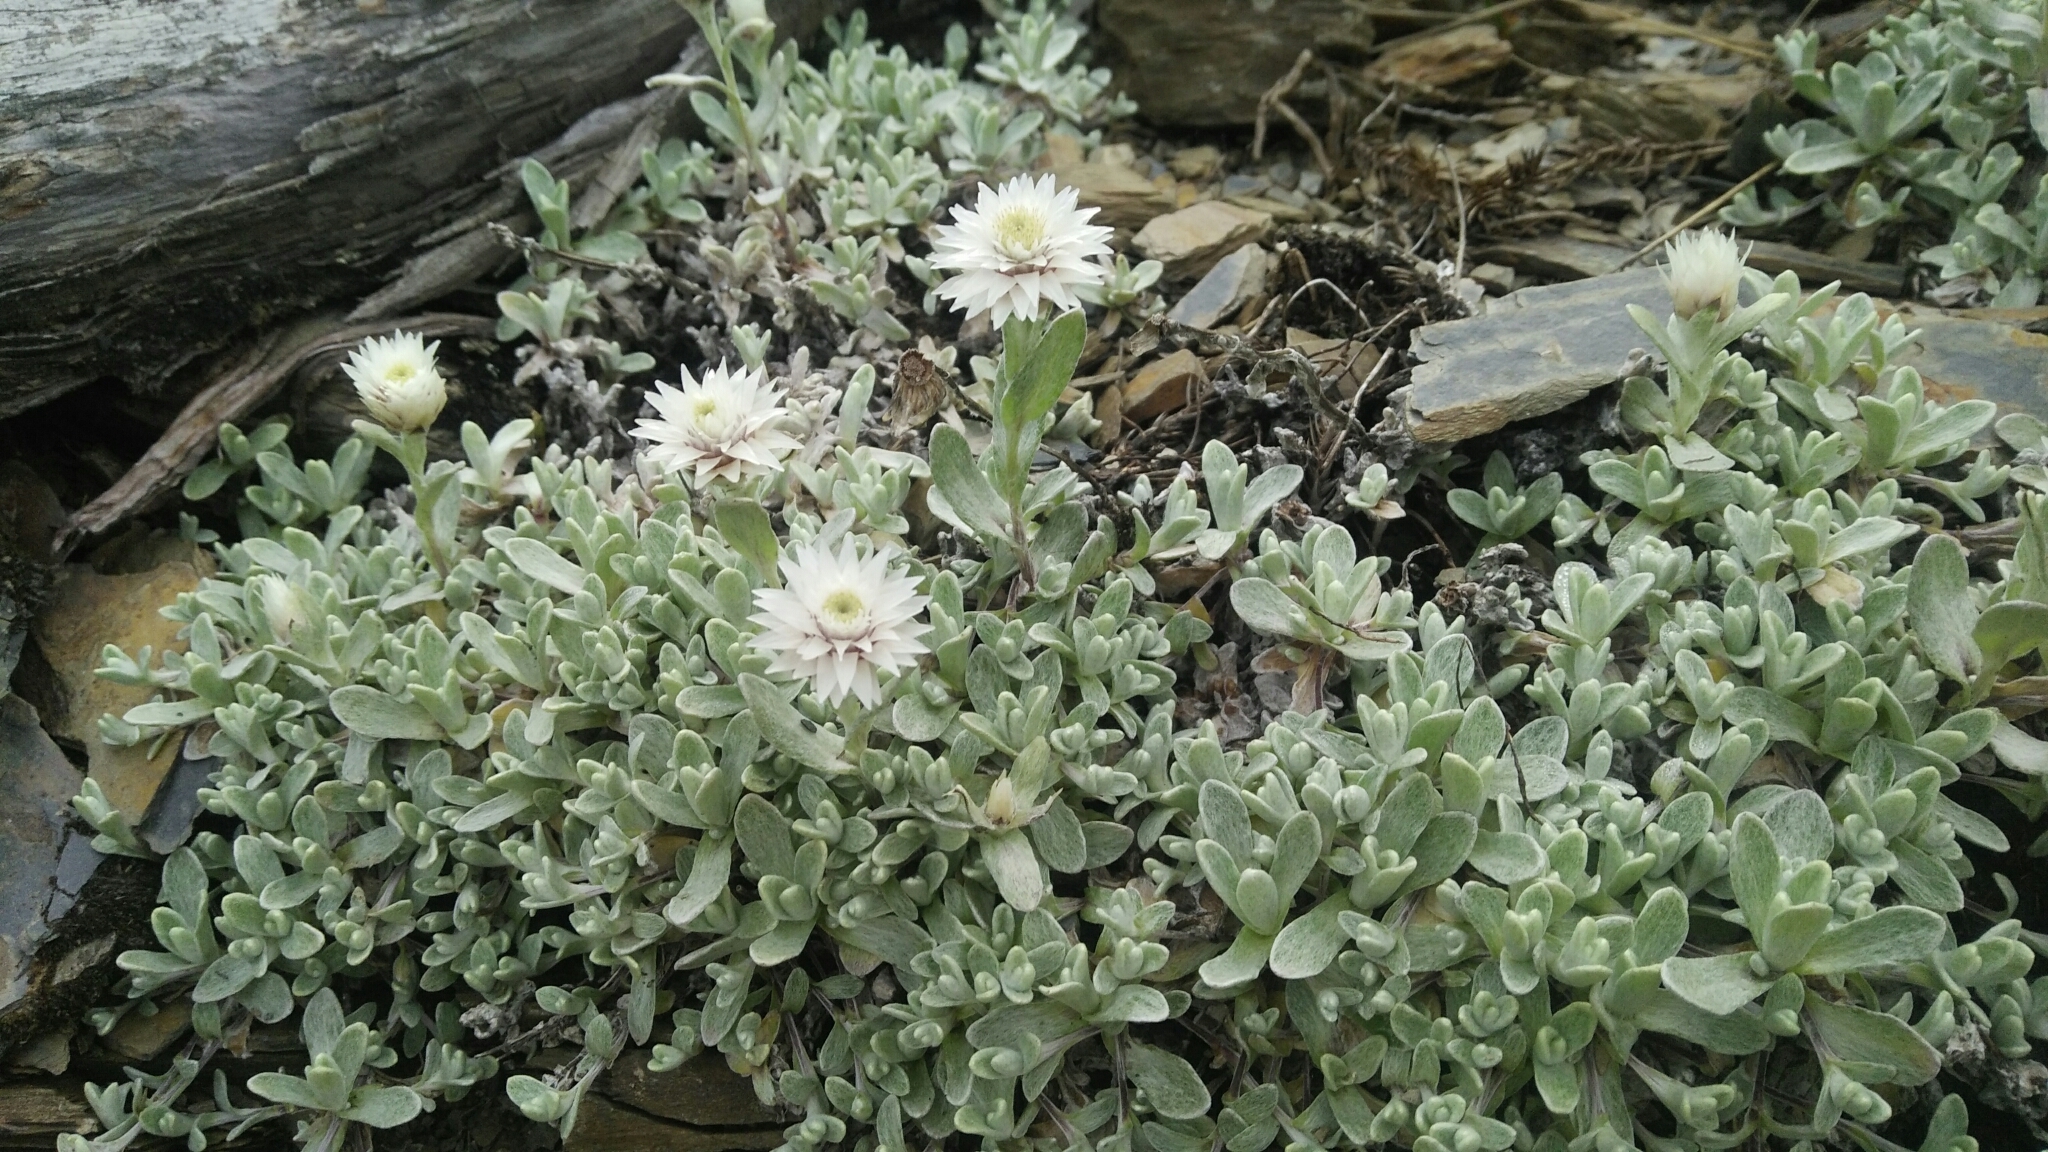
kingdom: Plantae
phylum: Tracheophyta
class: Magnoliopsida
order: Asterales
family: Asteraceae
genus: Anaphalis
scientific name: Anaphalis nepalensis
